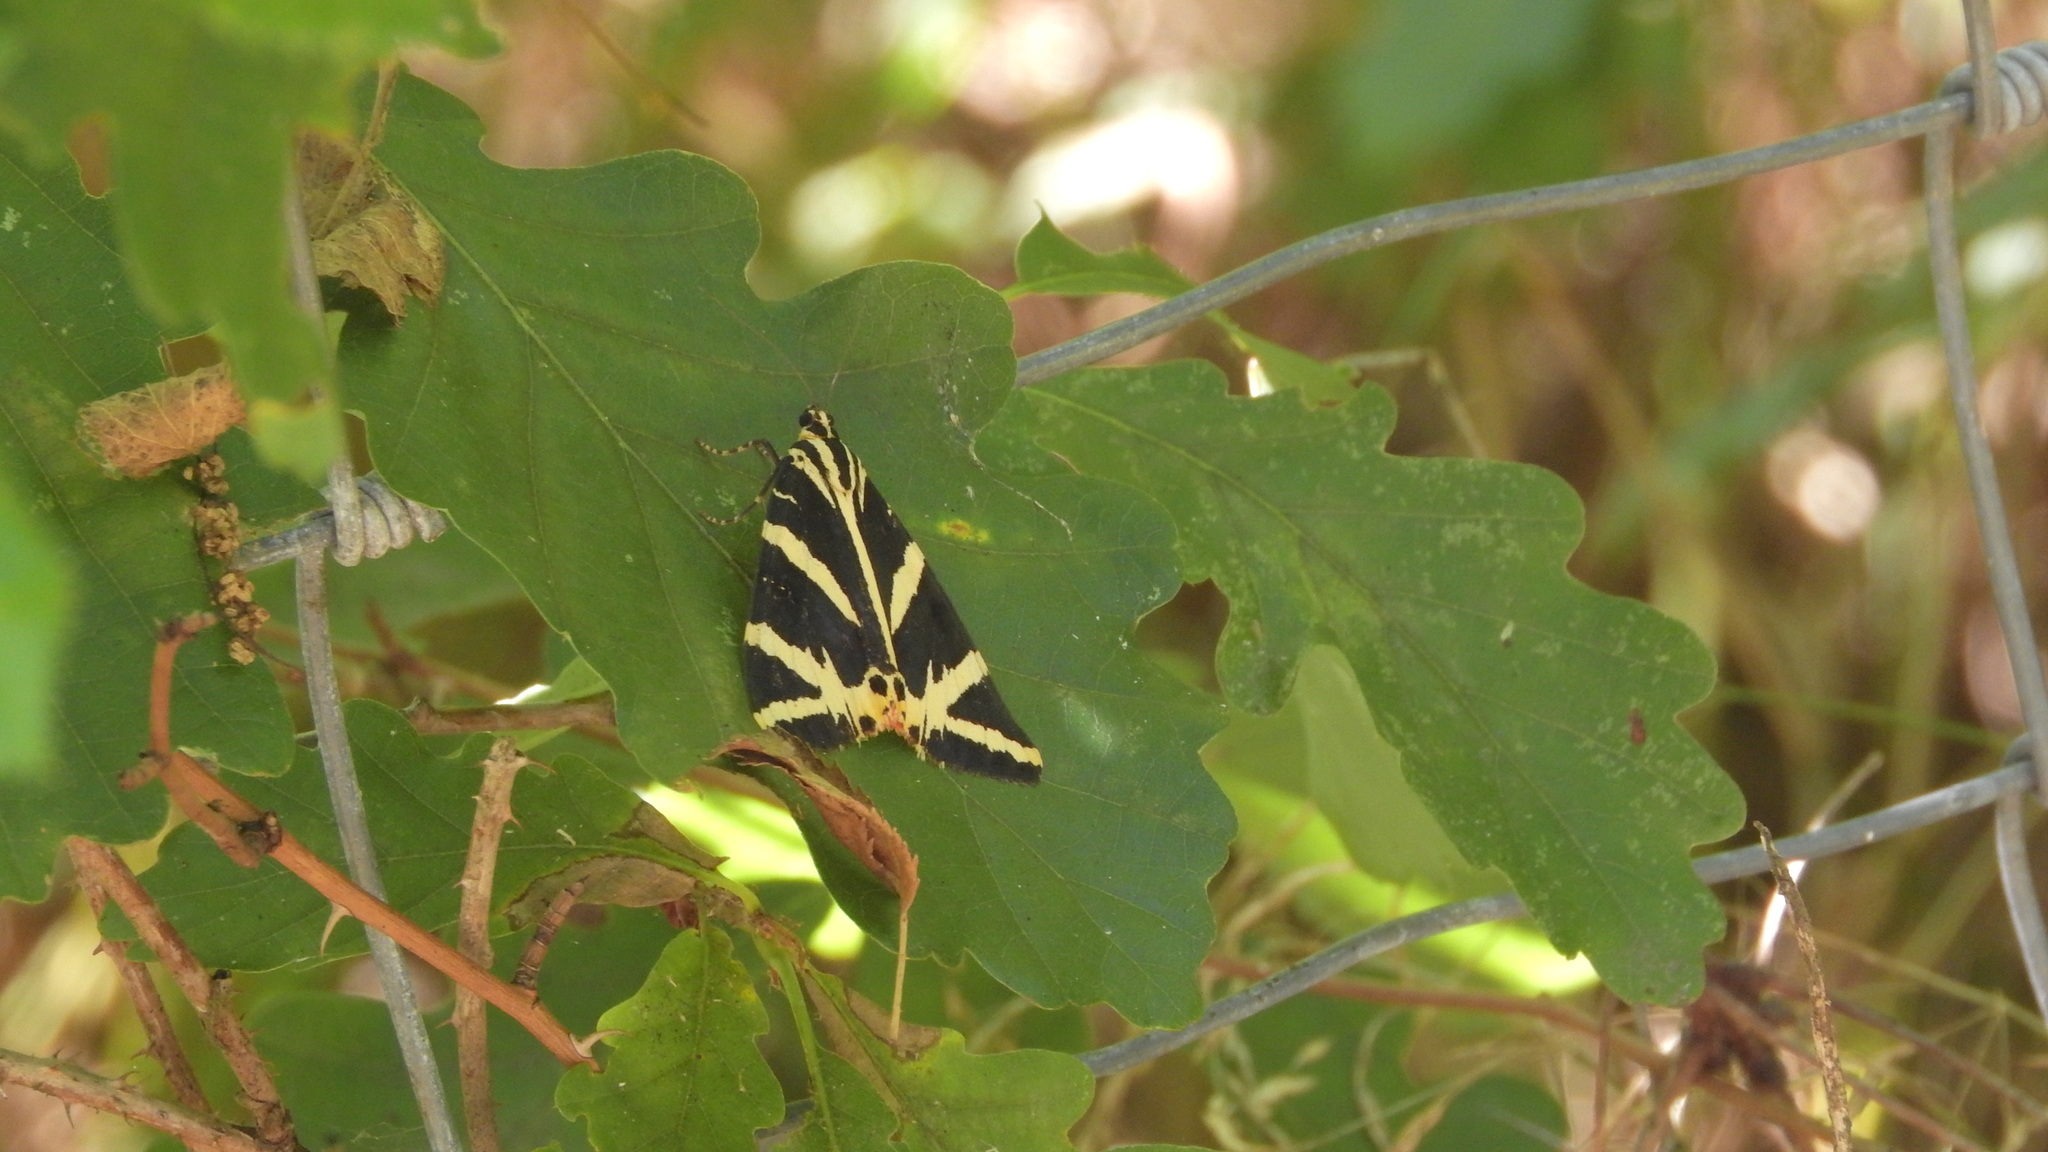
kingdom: Animalia
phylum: Arthropoda
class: Insecta
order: Lepidoptera
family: Erebidae
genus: Euplagia
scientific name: Euplagia quadripunctaria
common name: Jersey tiger
